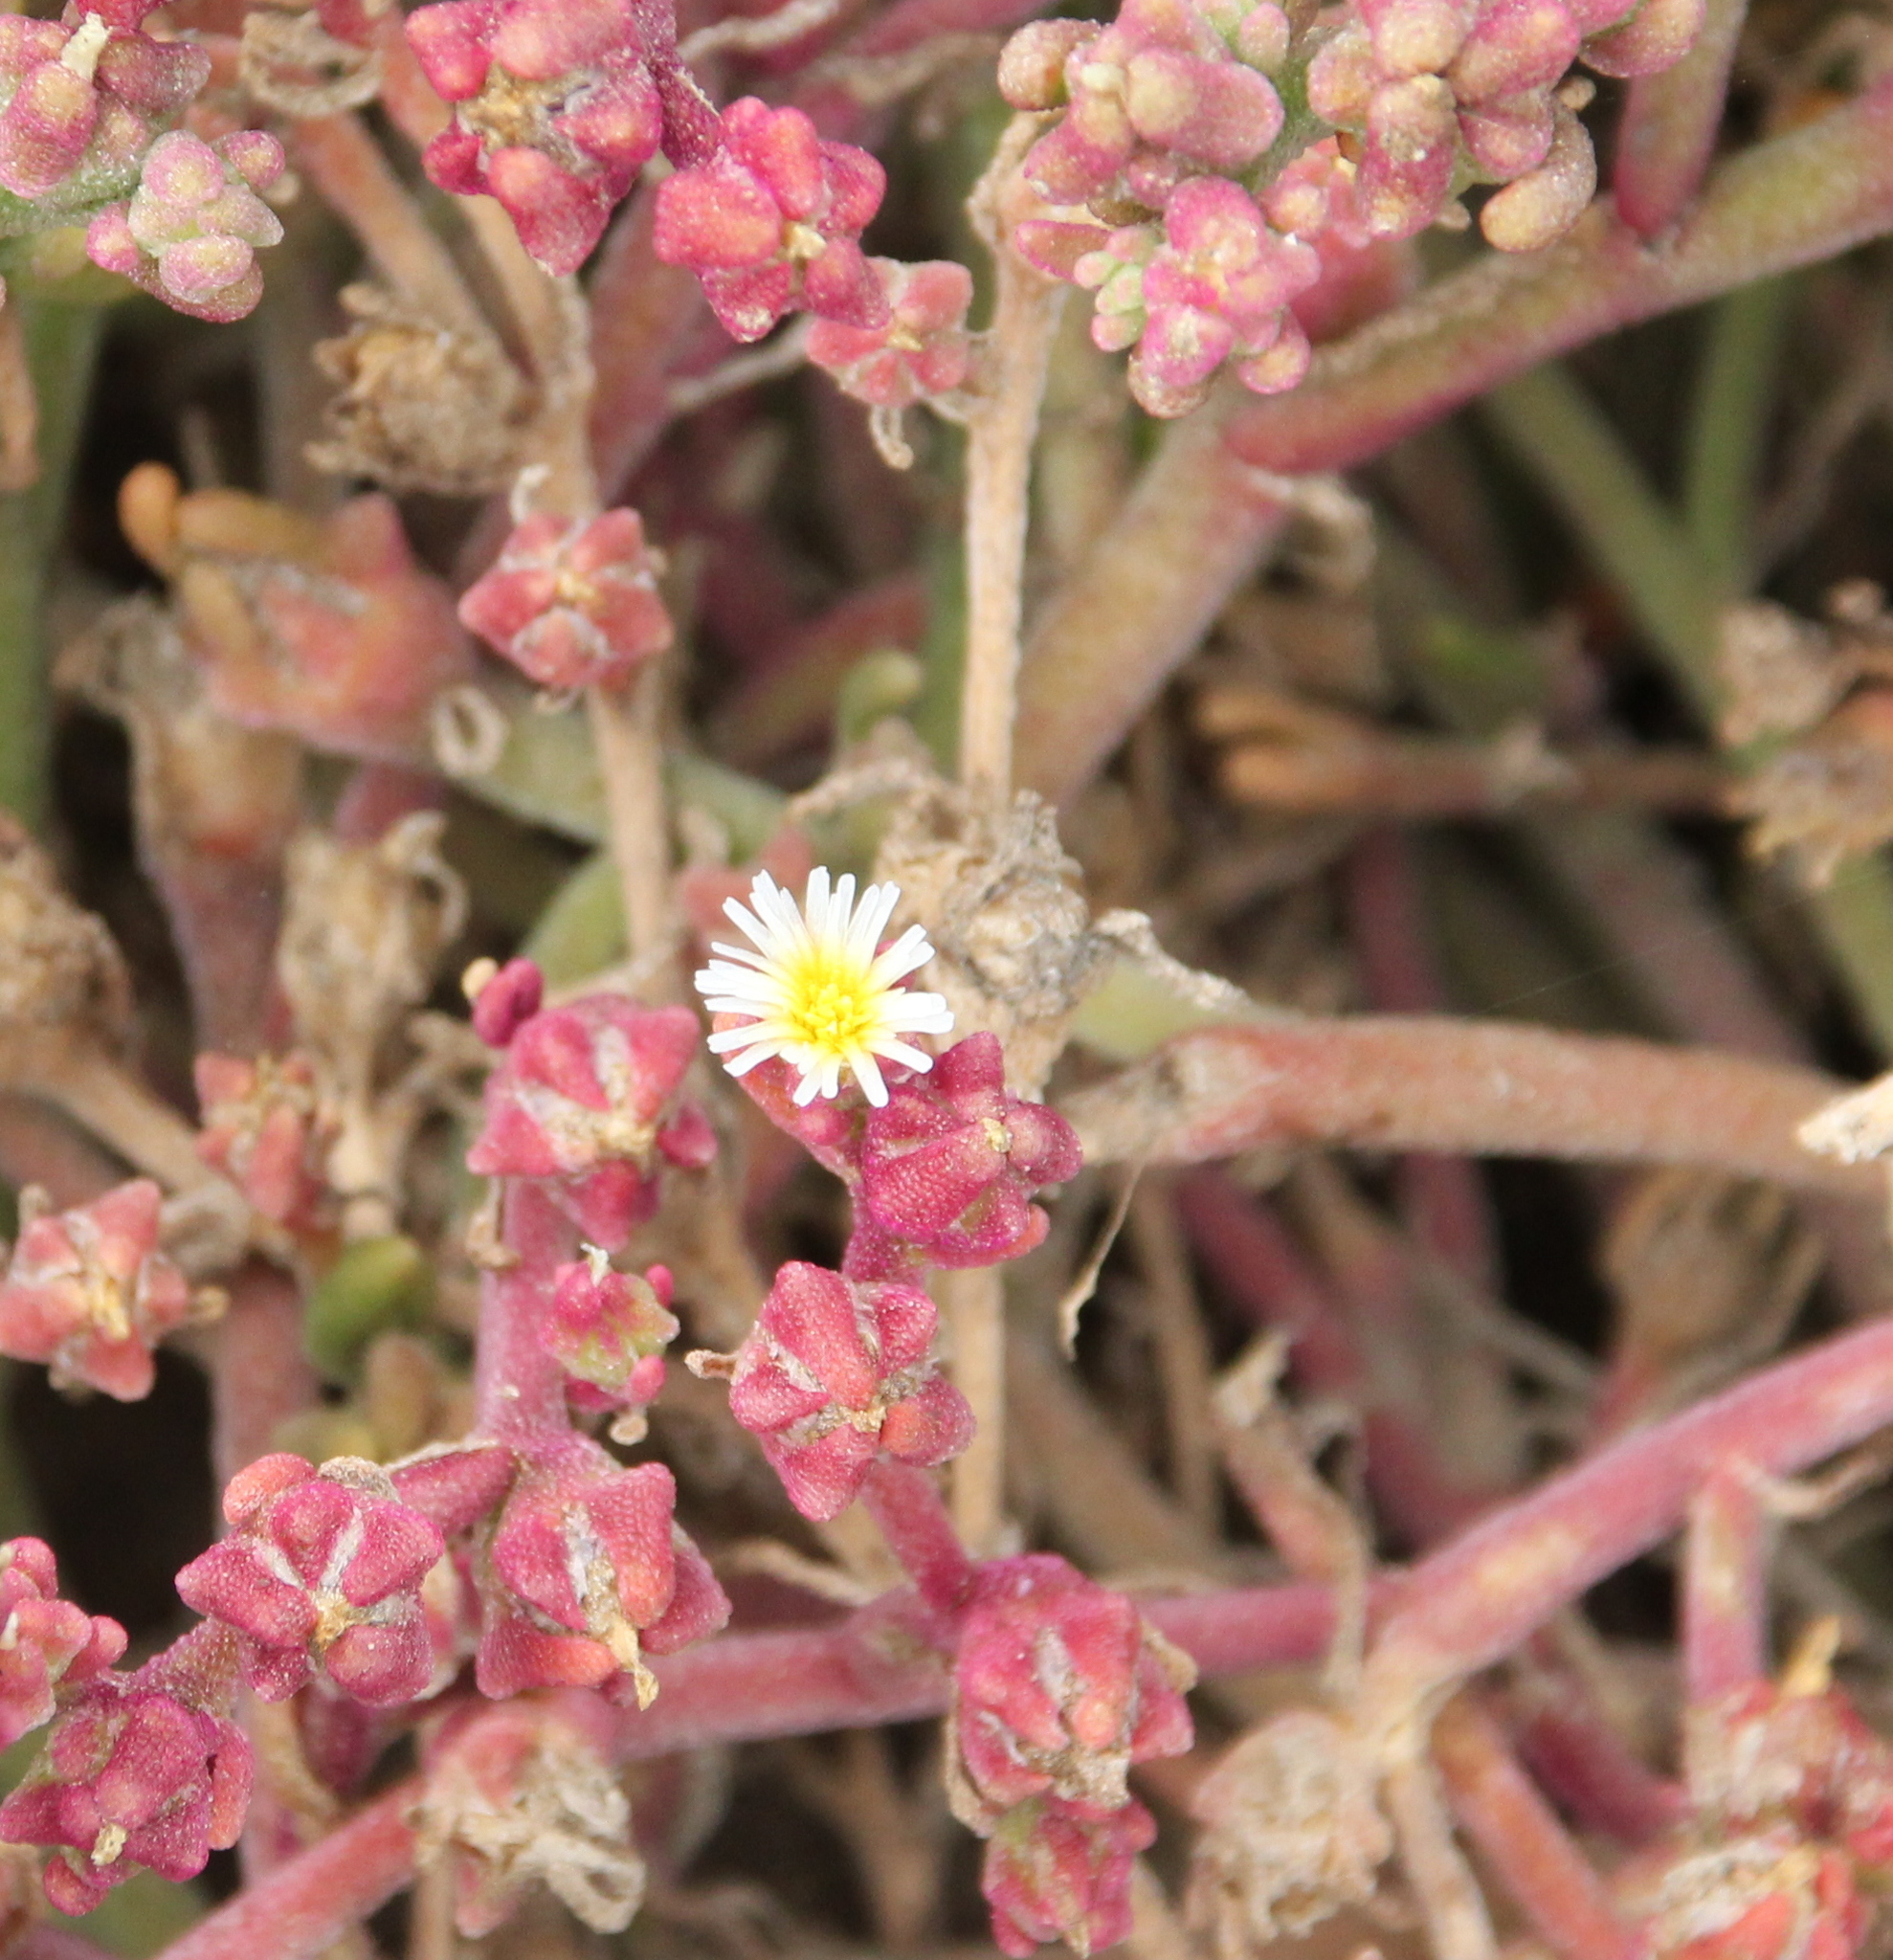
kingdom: Plantae
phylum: Tracheophyta
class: Magnoliopsida
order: Caryophyllales
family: Aizoaceae
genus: Mesembryanthemum
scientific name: Mesembryanthemum nodiflorum
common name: Slenderleaf iceplant
